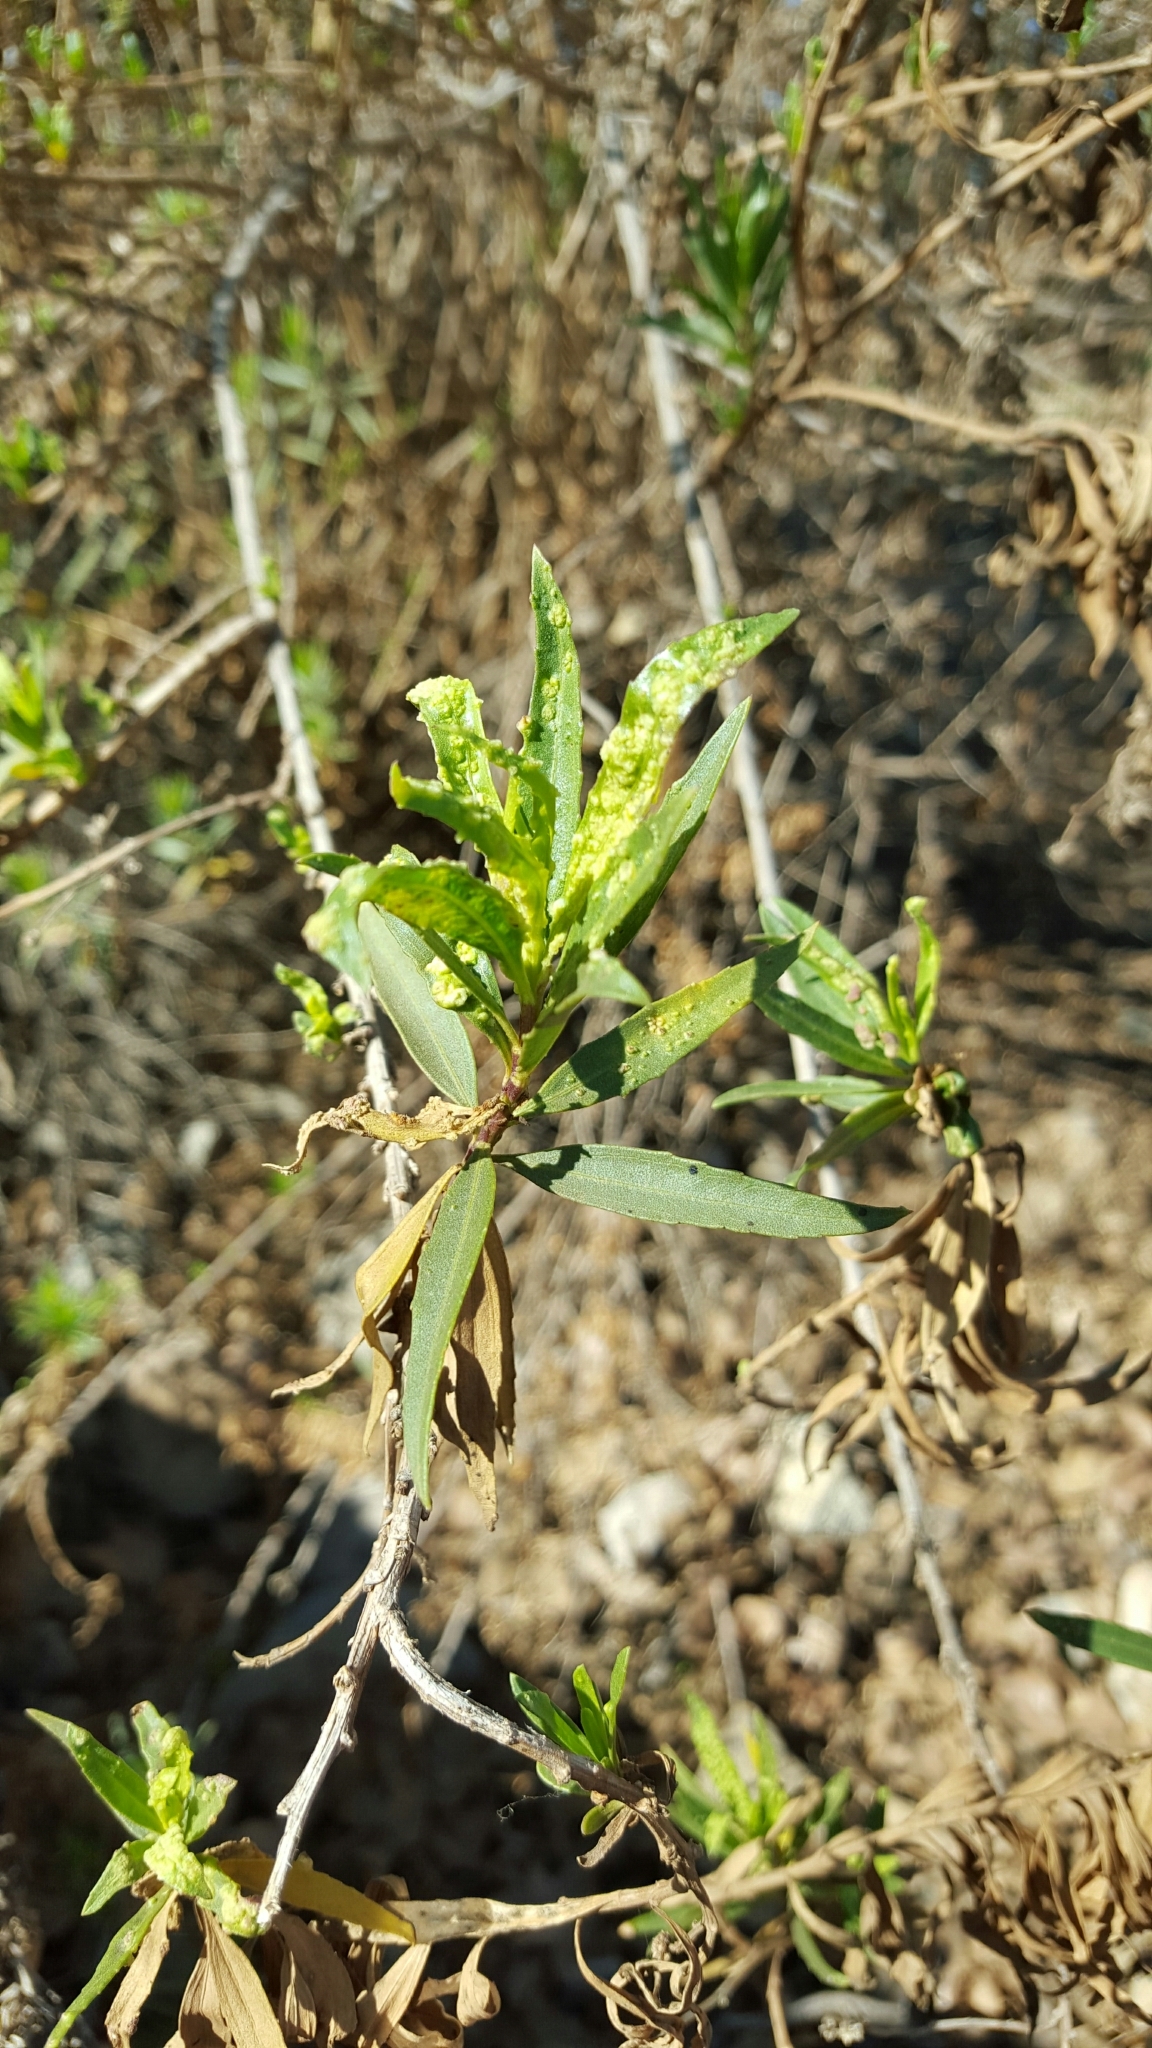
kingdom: Plantae
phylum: Tracheophyta
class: Magnoliopsida
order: Asterales
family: Asteraceae
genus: Baccharis
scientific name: Baccharis salicifolia
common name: Sticky baccharis
